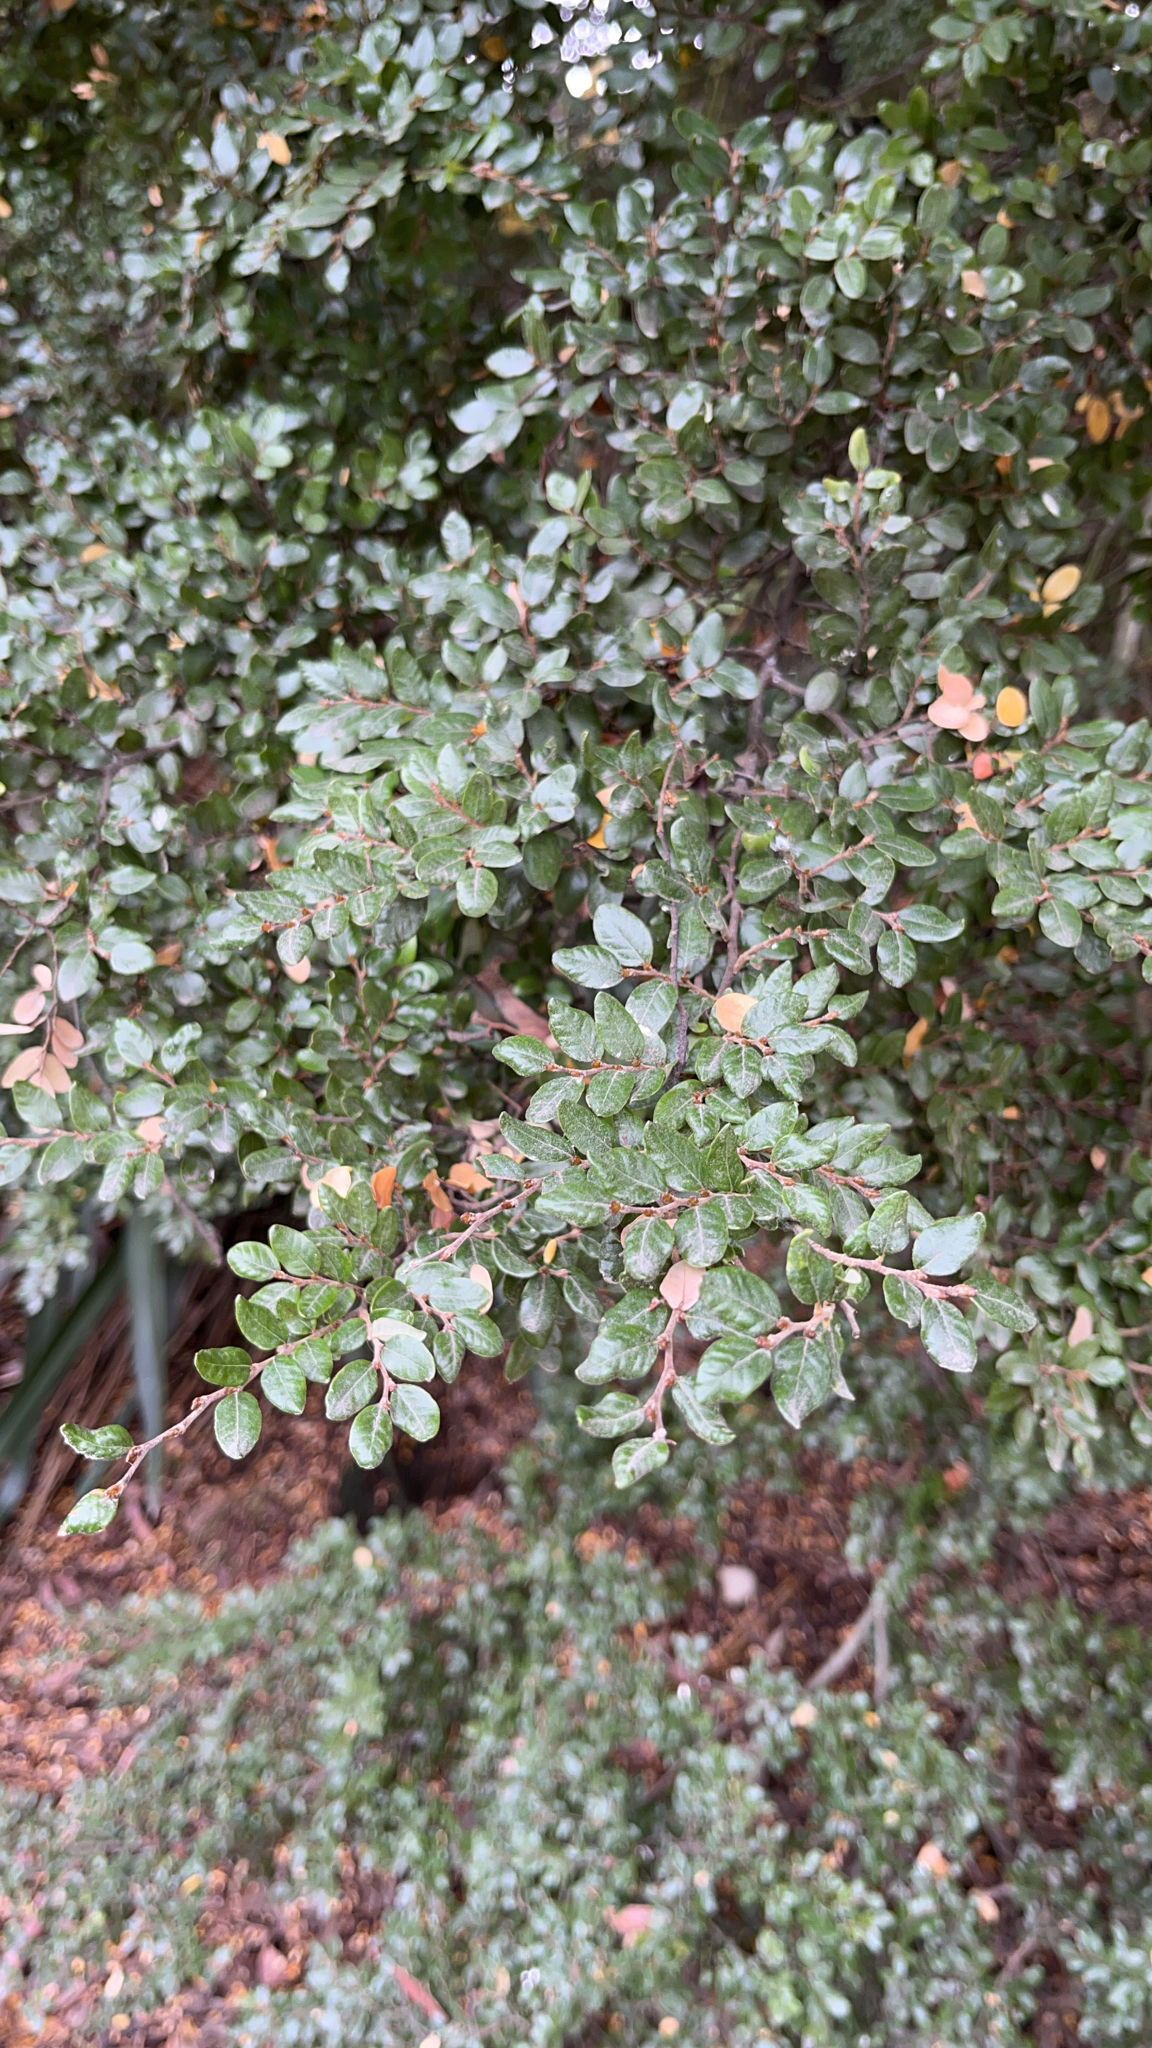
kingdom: Plantae
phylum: Tracheophyta
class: Magnoliopsida
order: Fagales
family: Nothofagaceae
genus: Nothofagus
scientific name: Nothofagus cliffortioides
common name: Mountain beech
